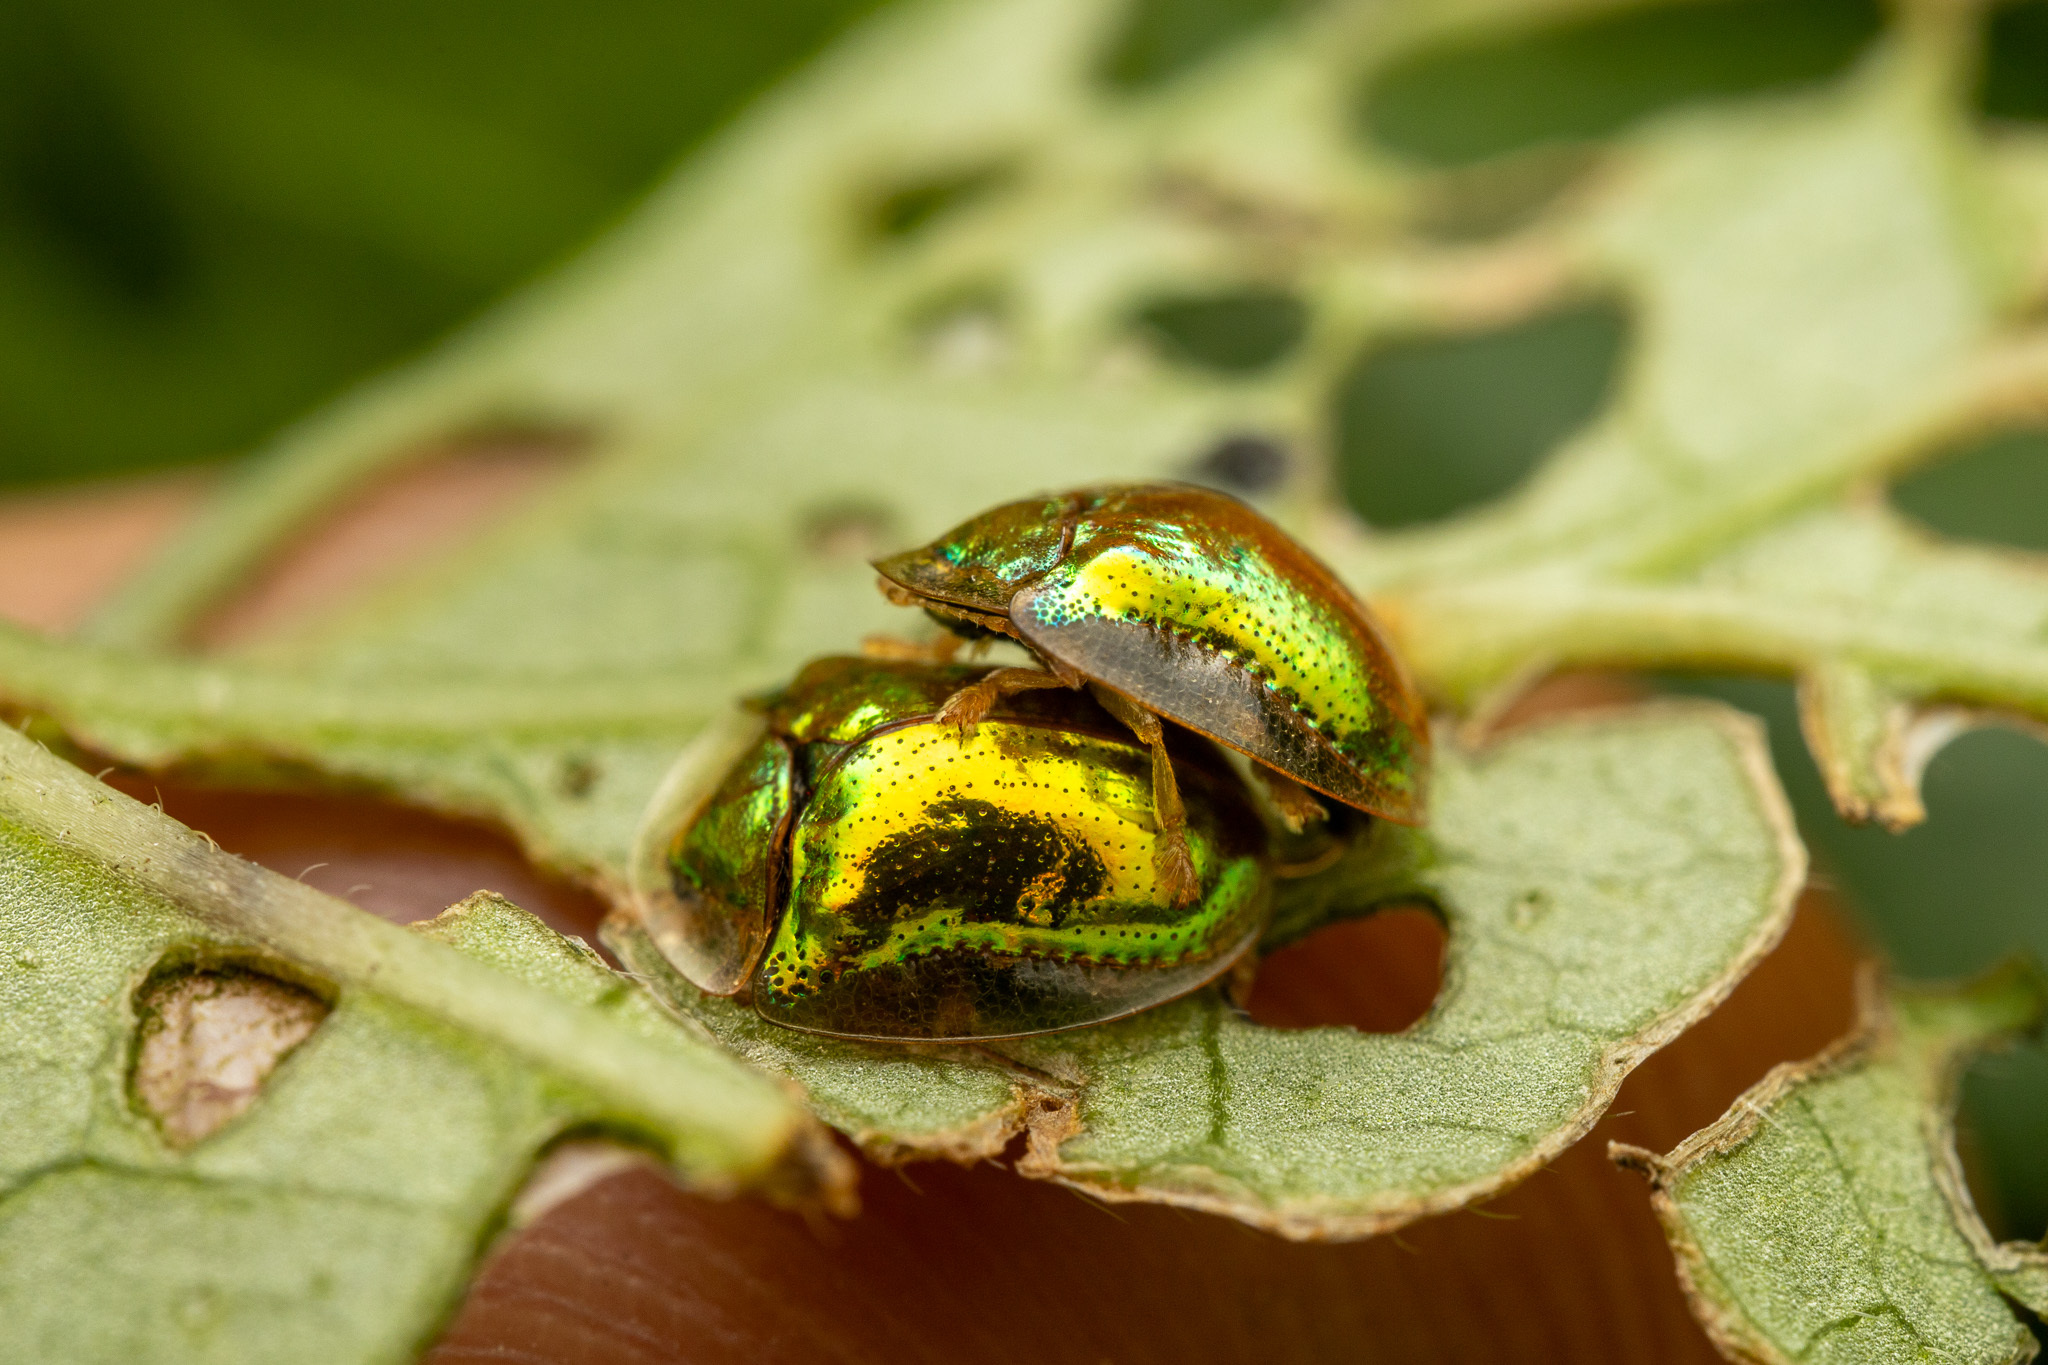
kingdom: Animalia
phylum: Arthropoda
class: Insecta
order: Coleoptera
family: Chrysomelidae
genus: Charidotella
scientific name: Charidotella succinea
